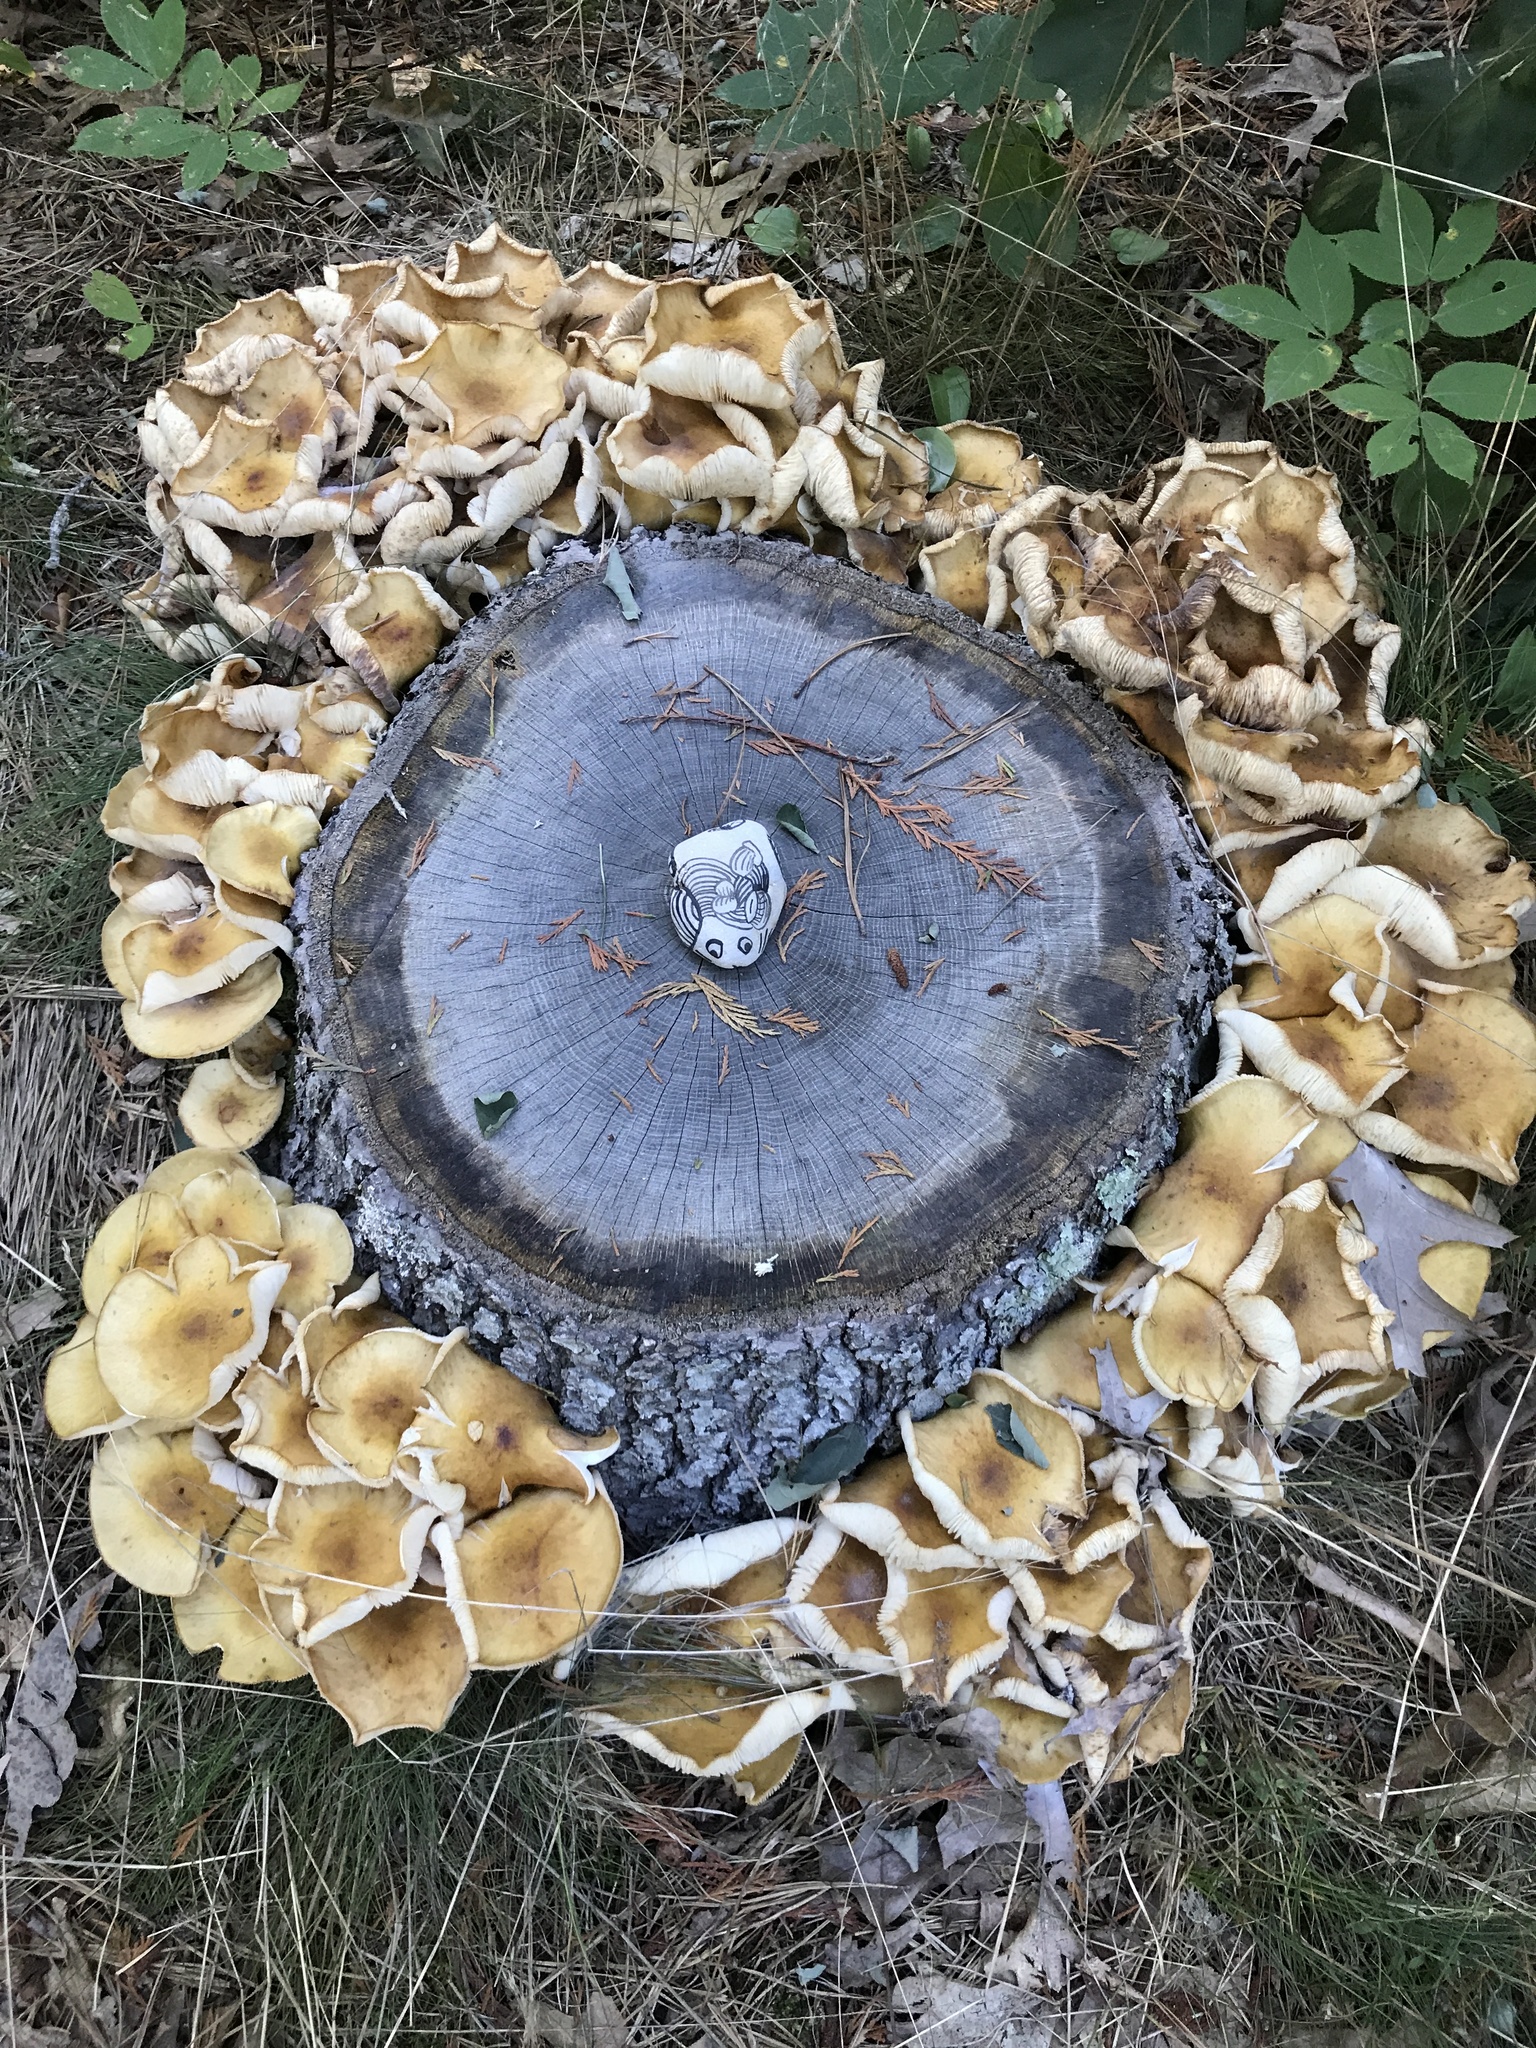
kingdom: Fungi
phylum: Basidiomycota
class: Agaricomycetes
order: Agaricales
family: Physalacriaceae
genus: Desarmillaria
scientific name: Desarmillaria caespitosa
